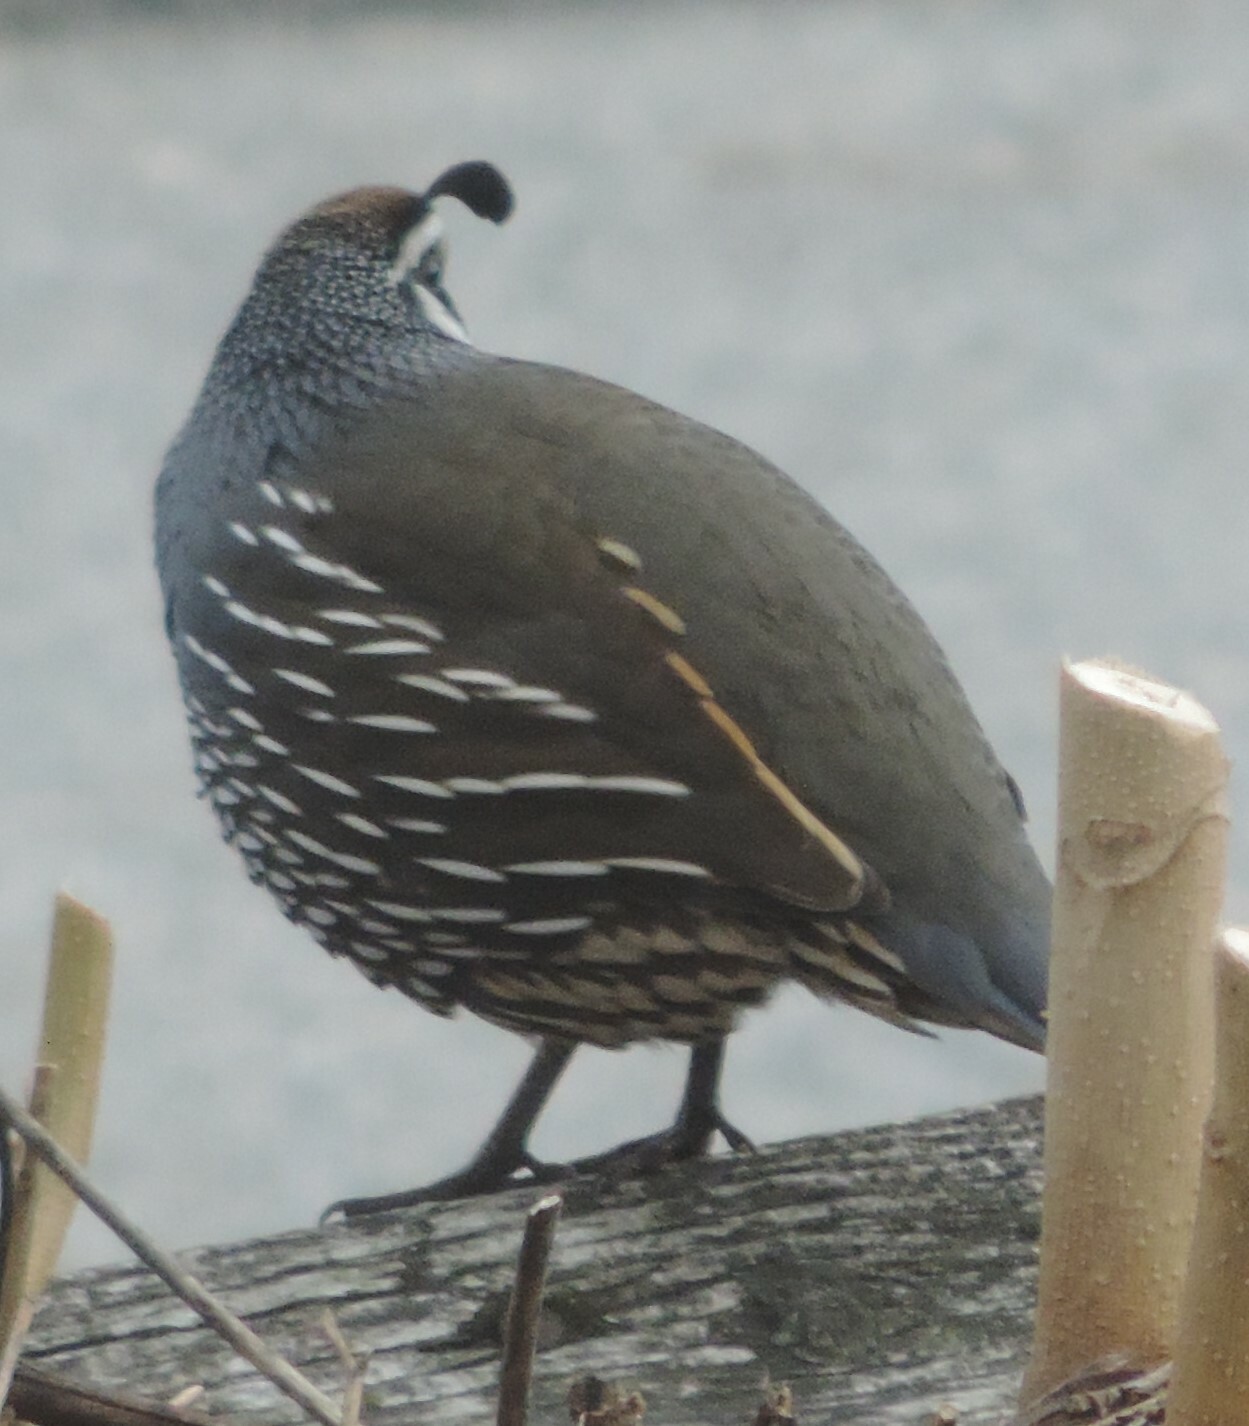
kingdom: Animalia
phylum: Chordata
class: Aves
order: Galliformes
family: Odontophoridae
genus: Callipepla
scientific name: Callipepla californica
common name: California quail
